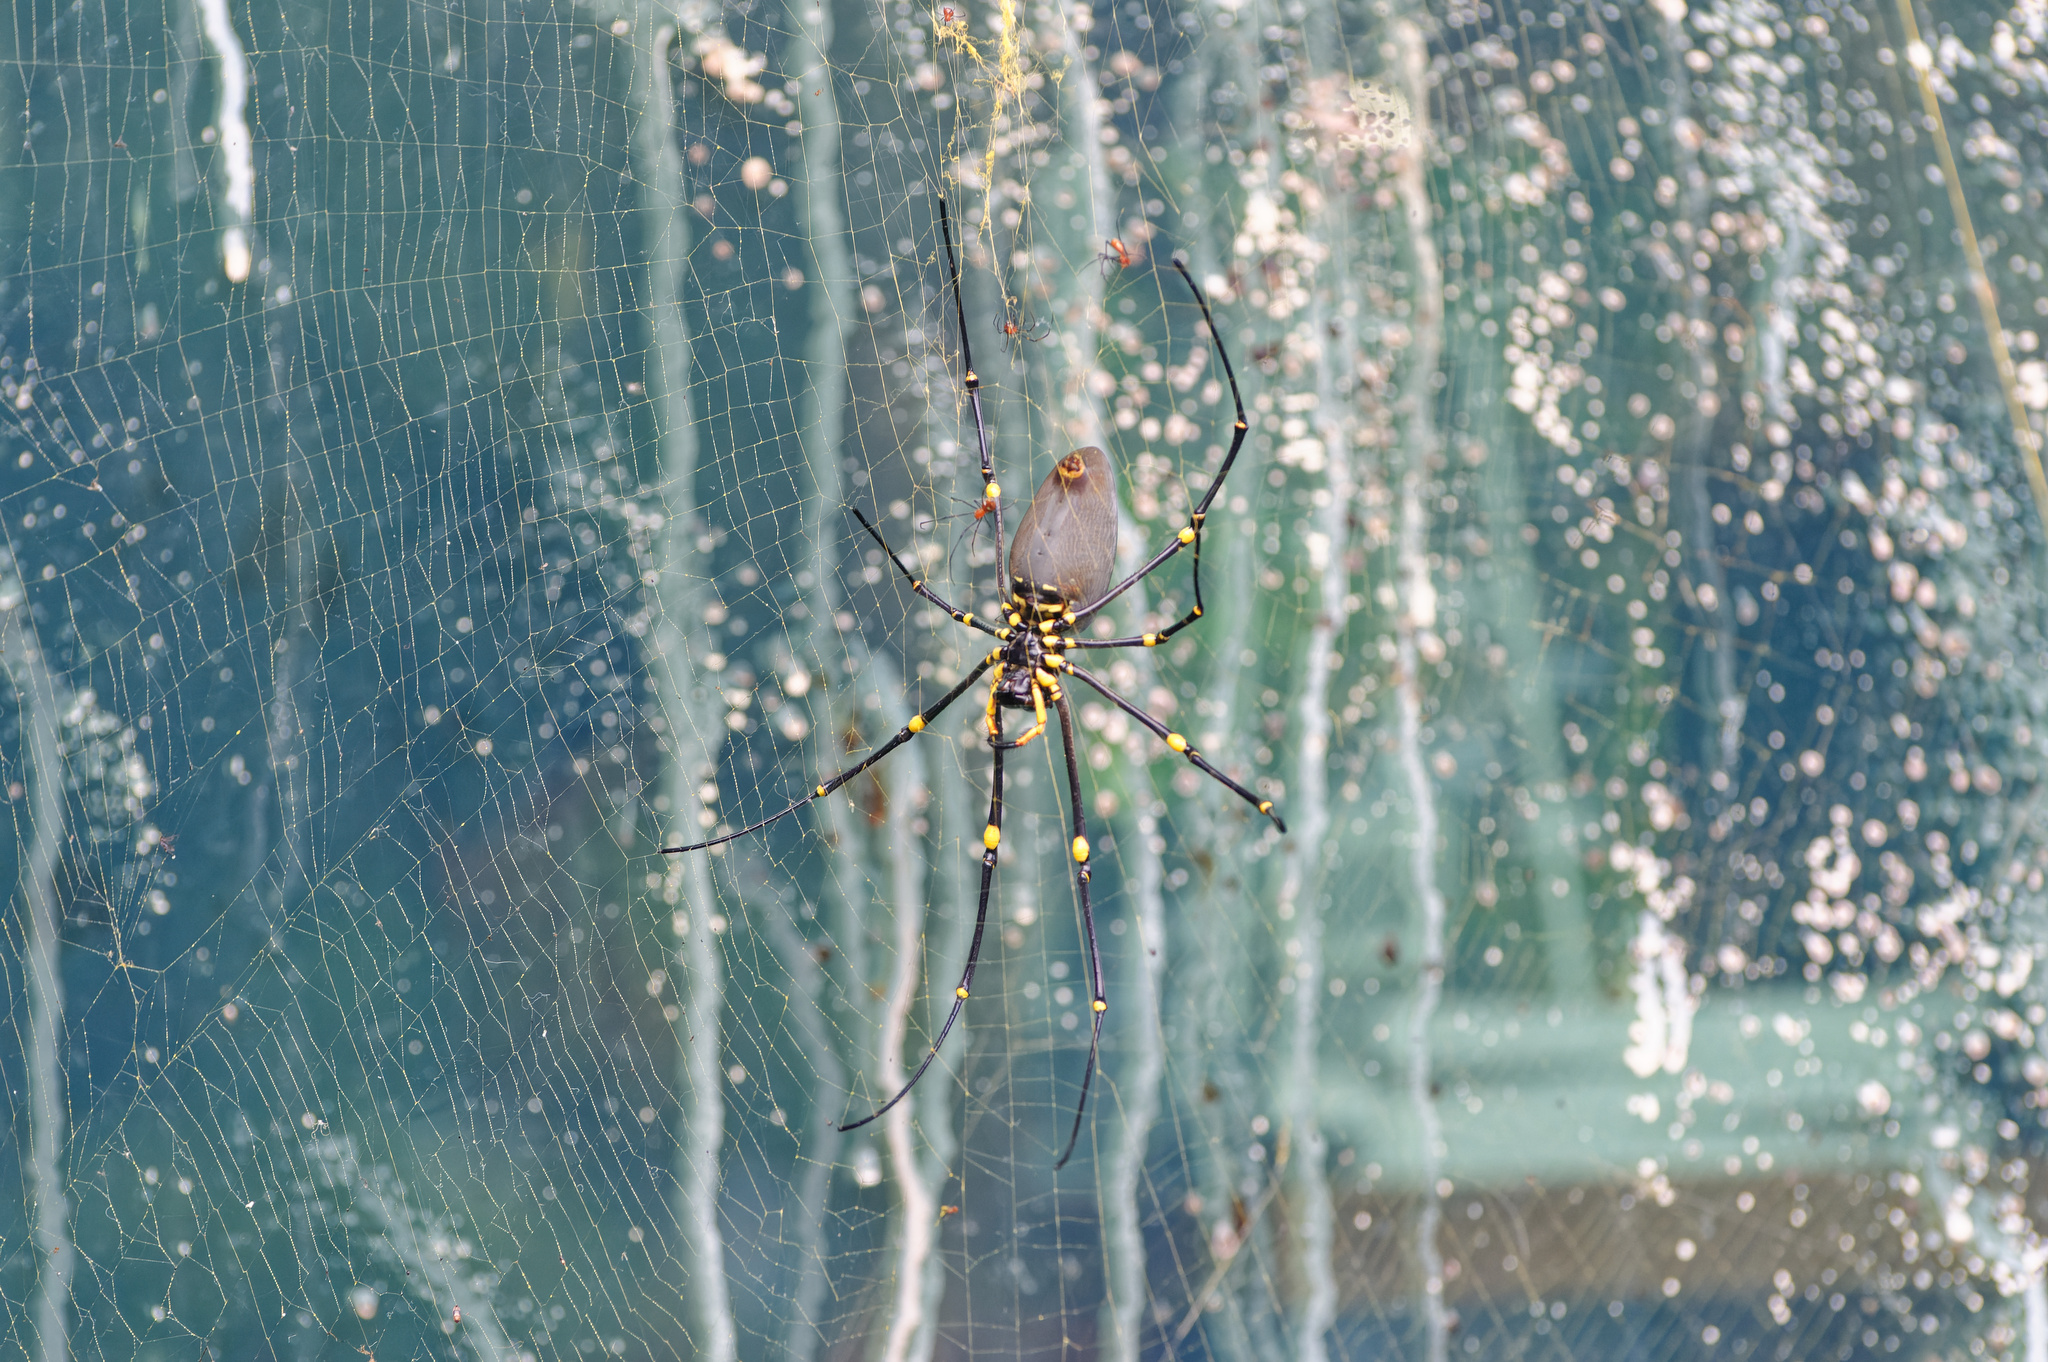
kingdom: Animalia
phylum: Arthropoda
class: Arachnida
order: Araneae
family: Araneidae
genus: Nephila
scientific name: Nephila pilipes
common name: Giant golden orb weaver
